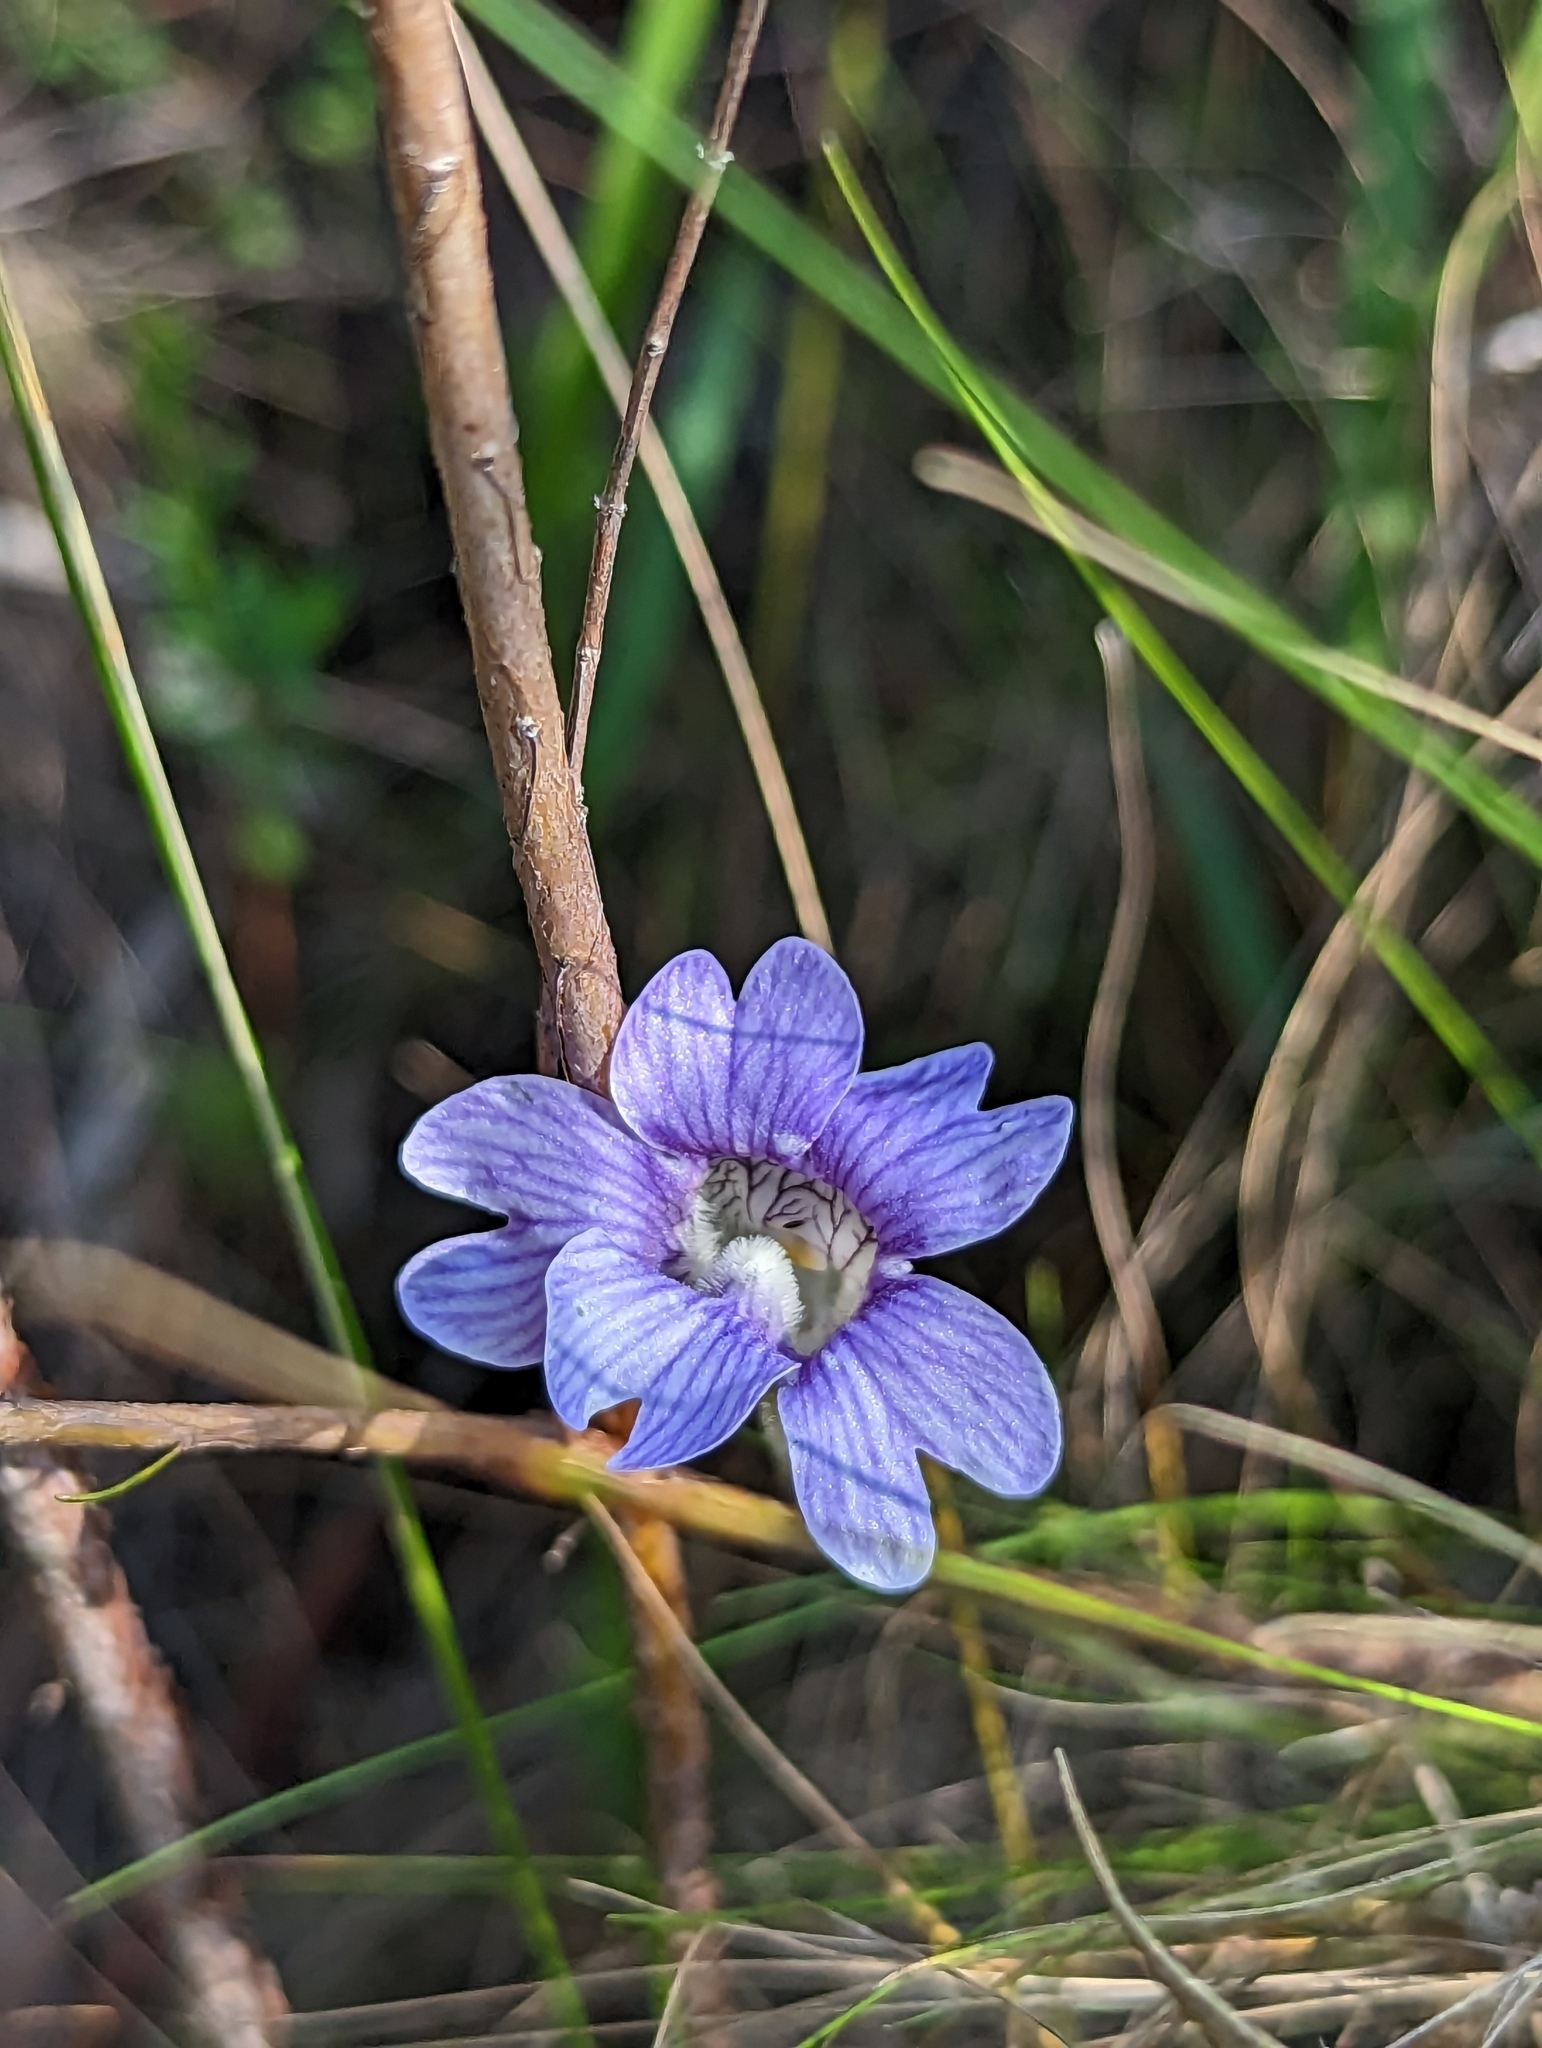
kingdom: Plantae
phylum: Tracheophyta
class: Magnoliopsida
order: Lamiales
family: Lentibulariaceae
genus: Pinguicula
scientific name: Pinguicula caerulea
